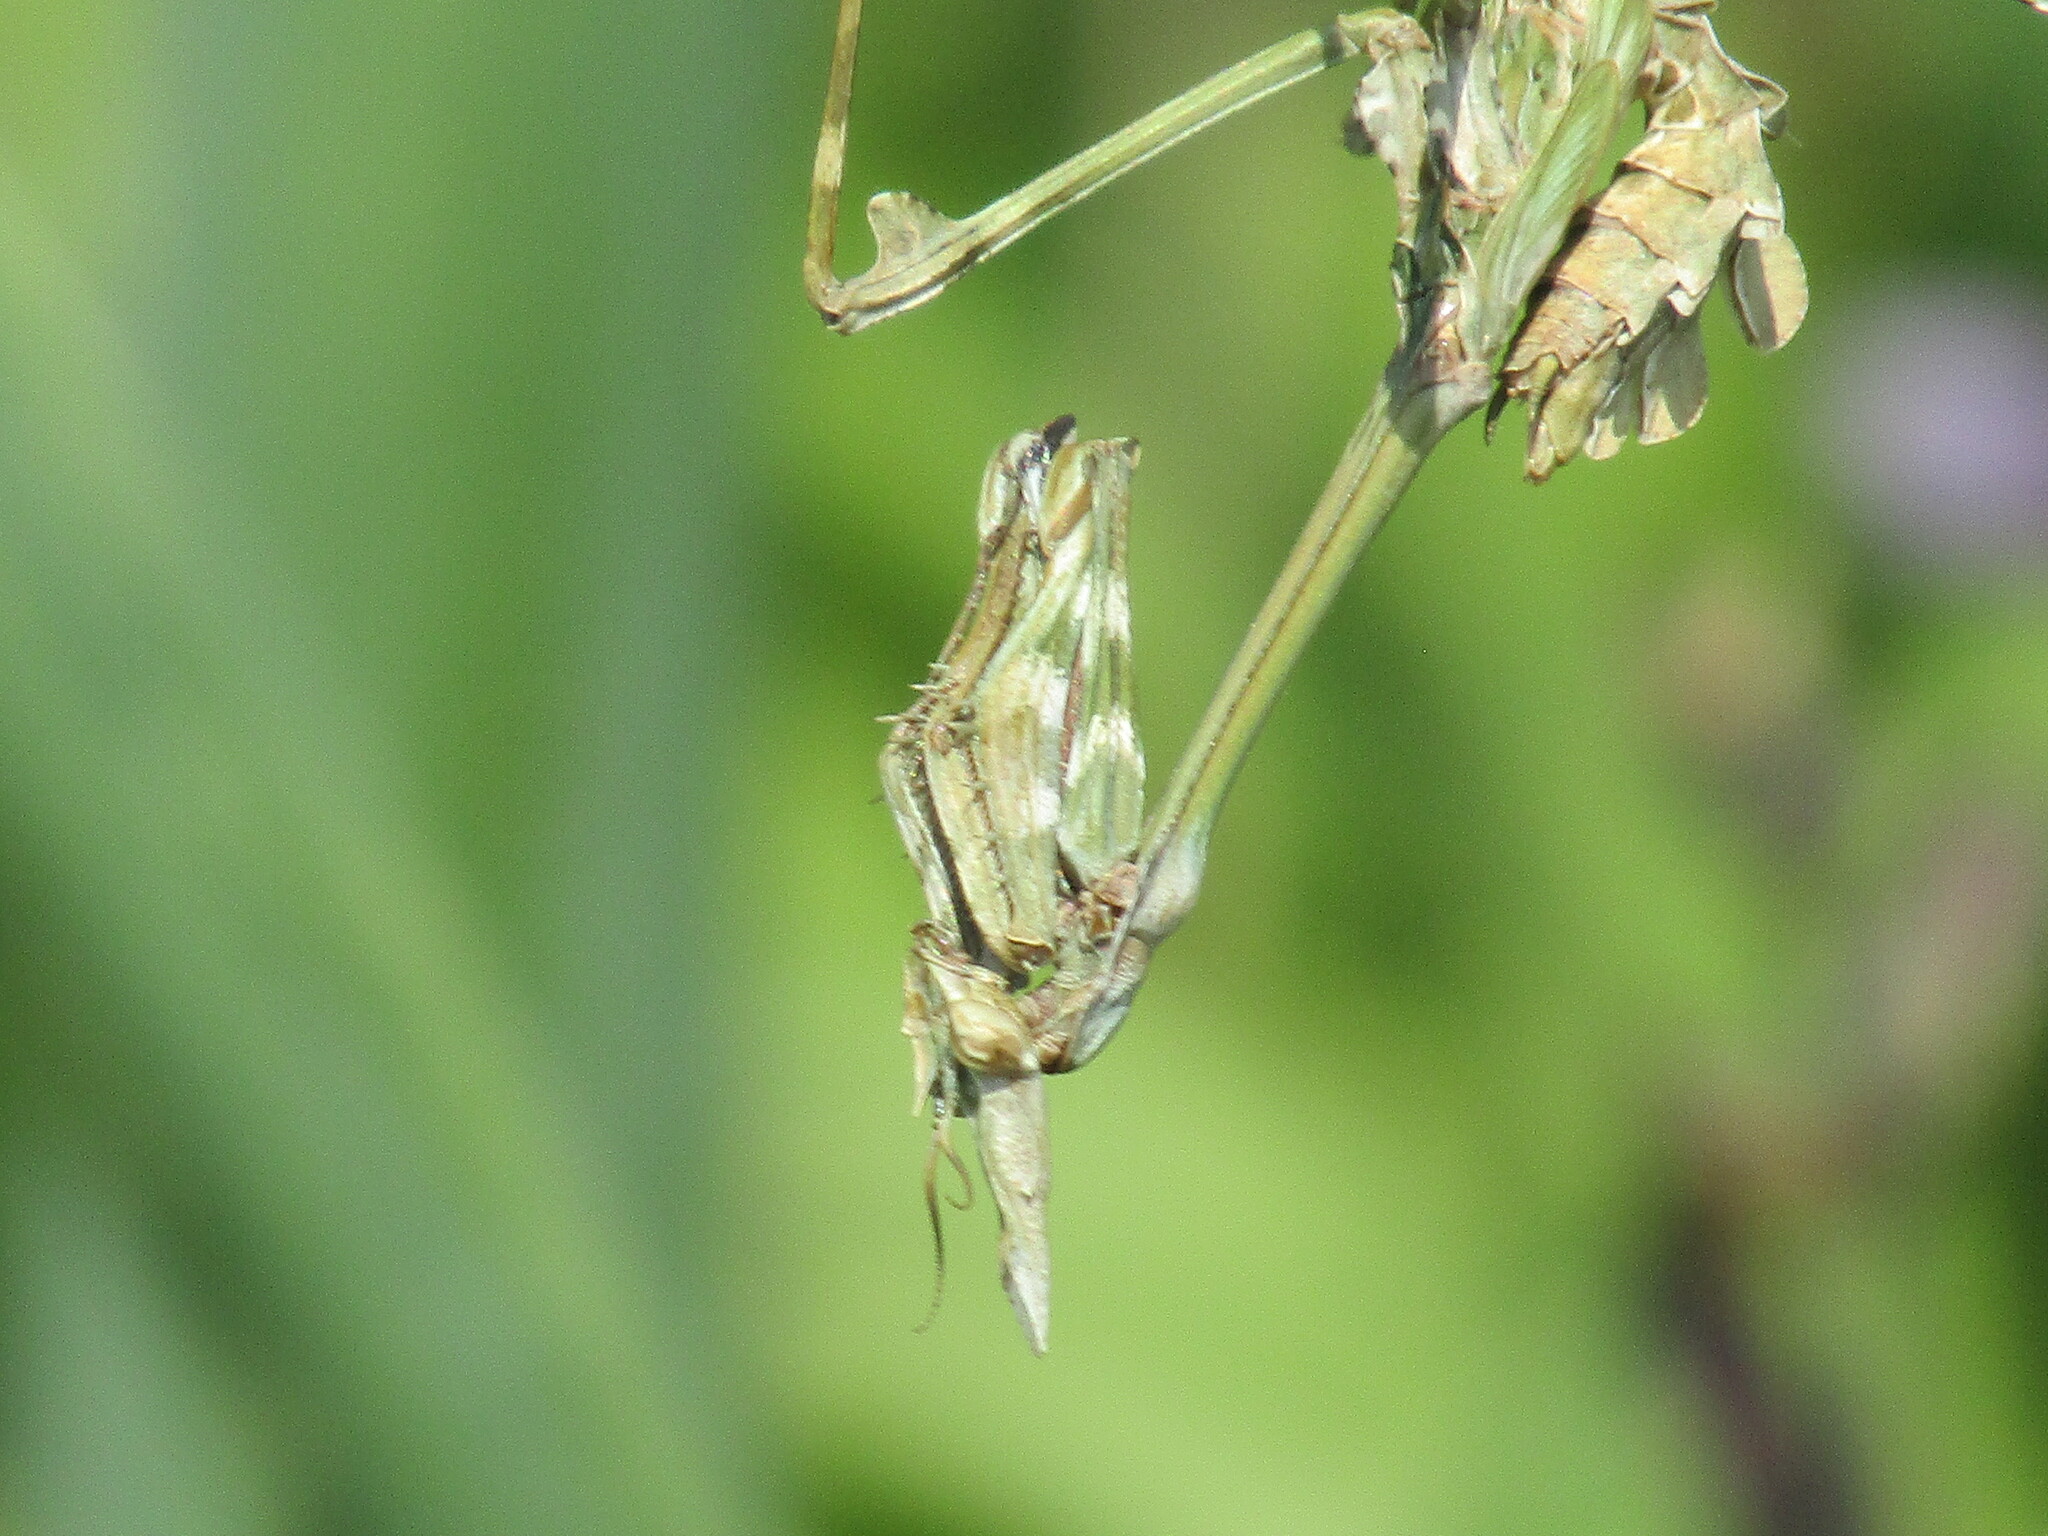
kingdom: Animalia
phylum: Arthropoda
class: Insecta
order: Mantodea
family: Empusidae
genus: Empusa
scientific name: Empusa fasciata
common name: Devil's mare
